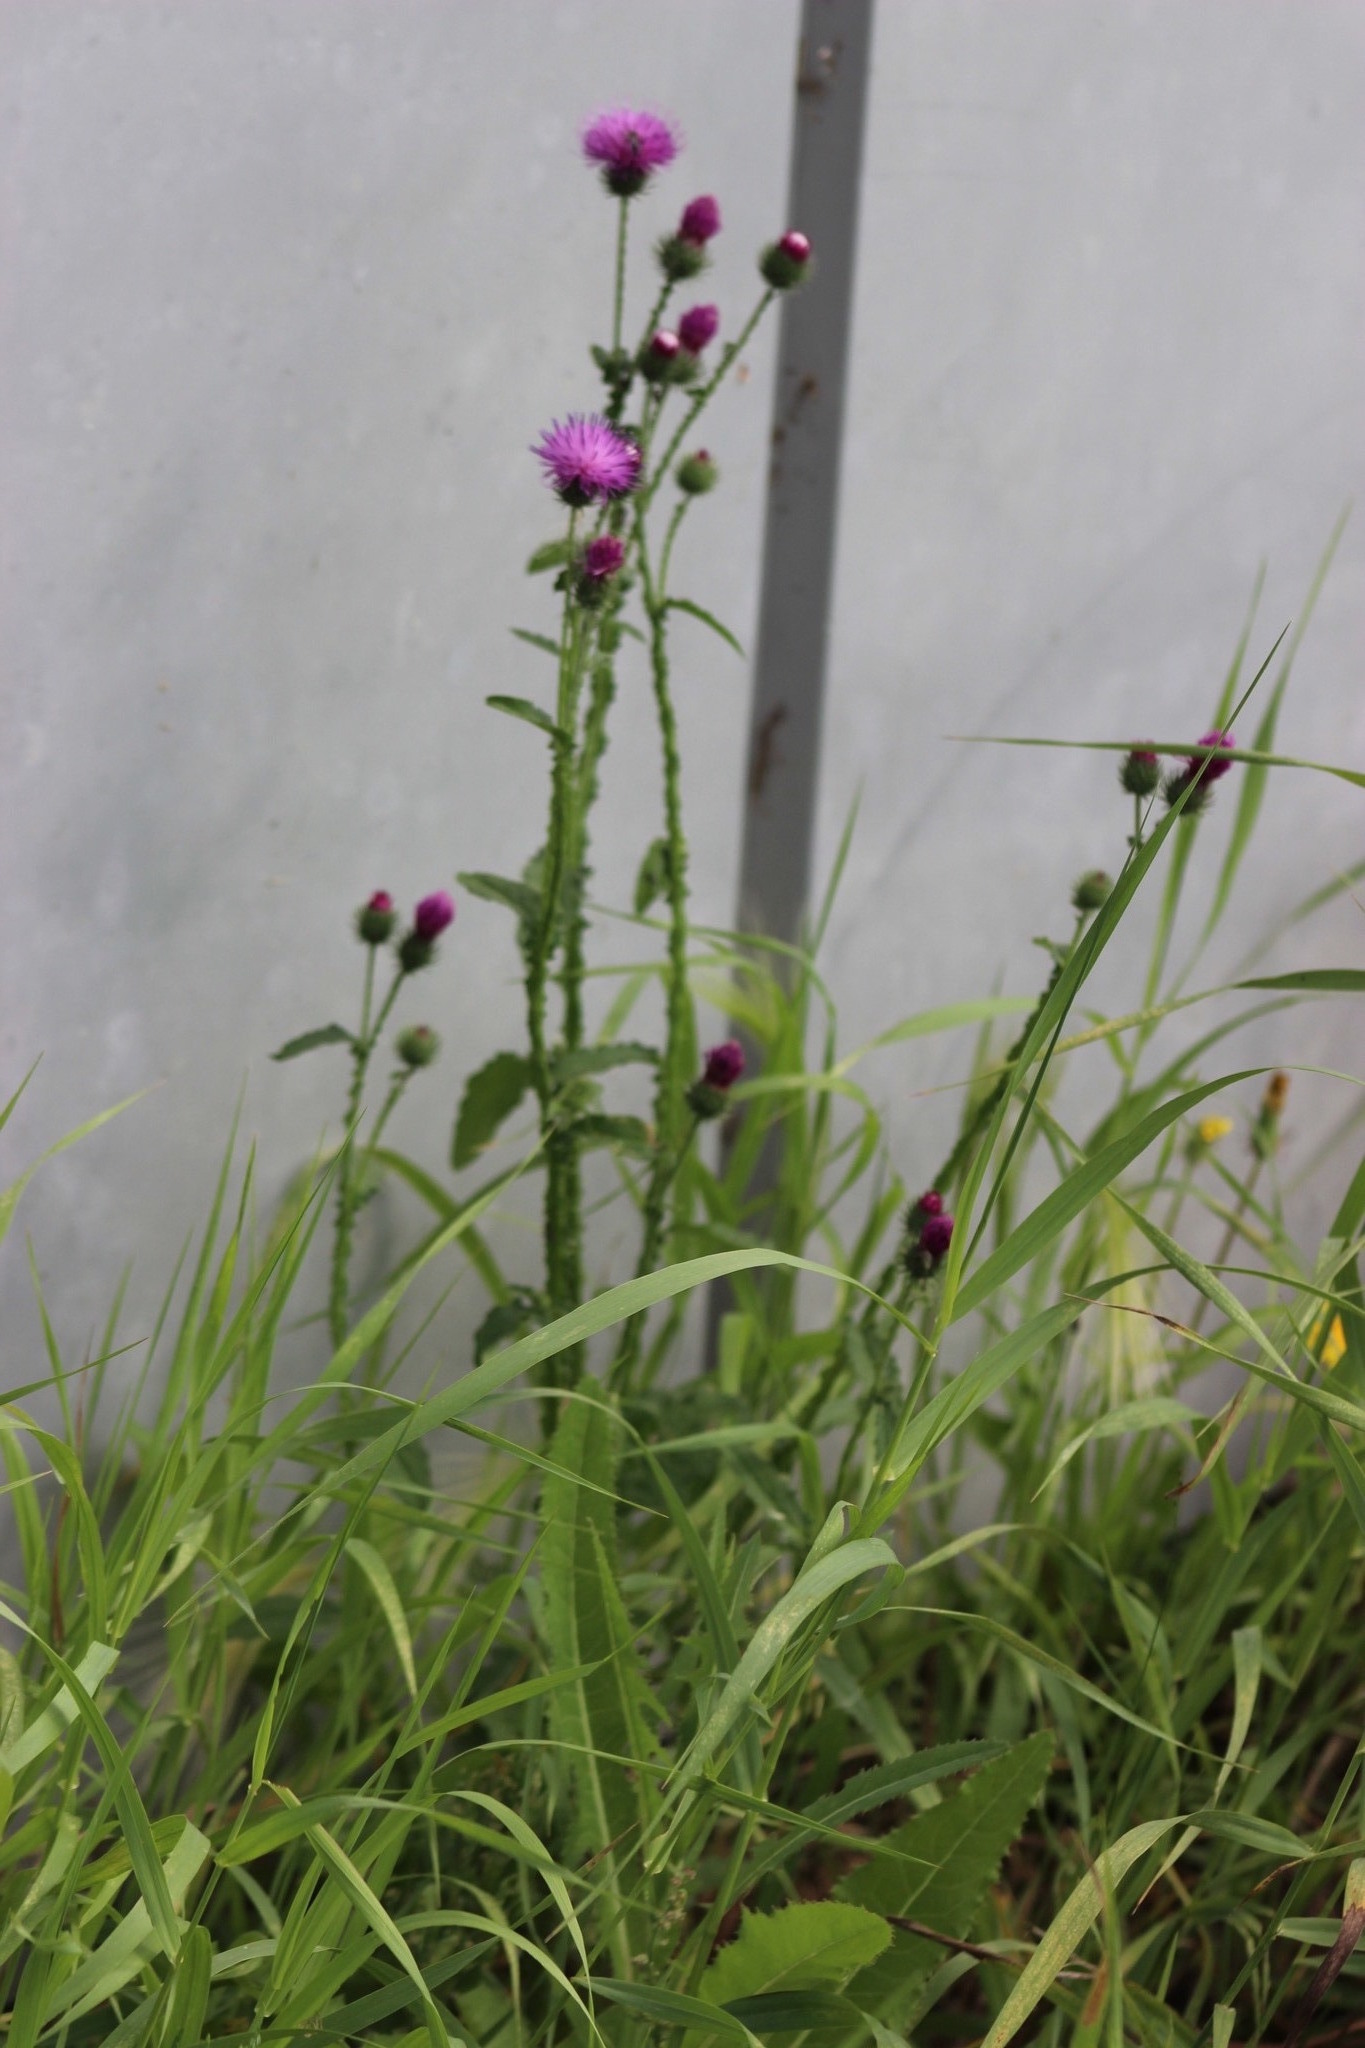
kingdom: Plantae
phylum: Tracheophyta
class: Magnoliopsida
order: Asterales
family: Asteraceae
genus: Carduus
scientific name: Carduus crispus
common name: Welted thistle
